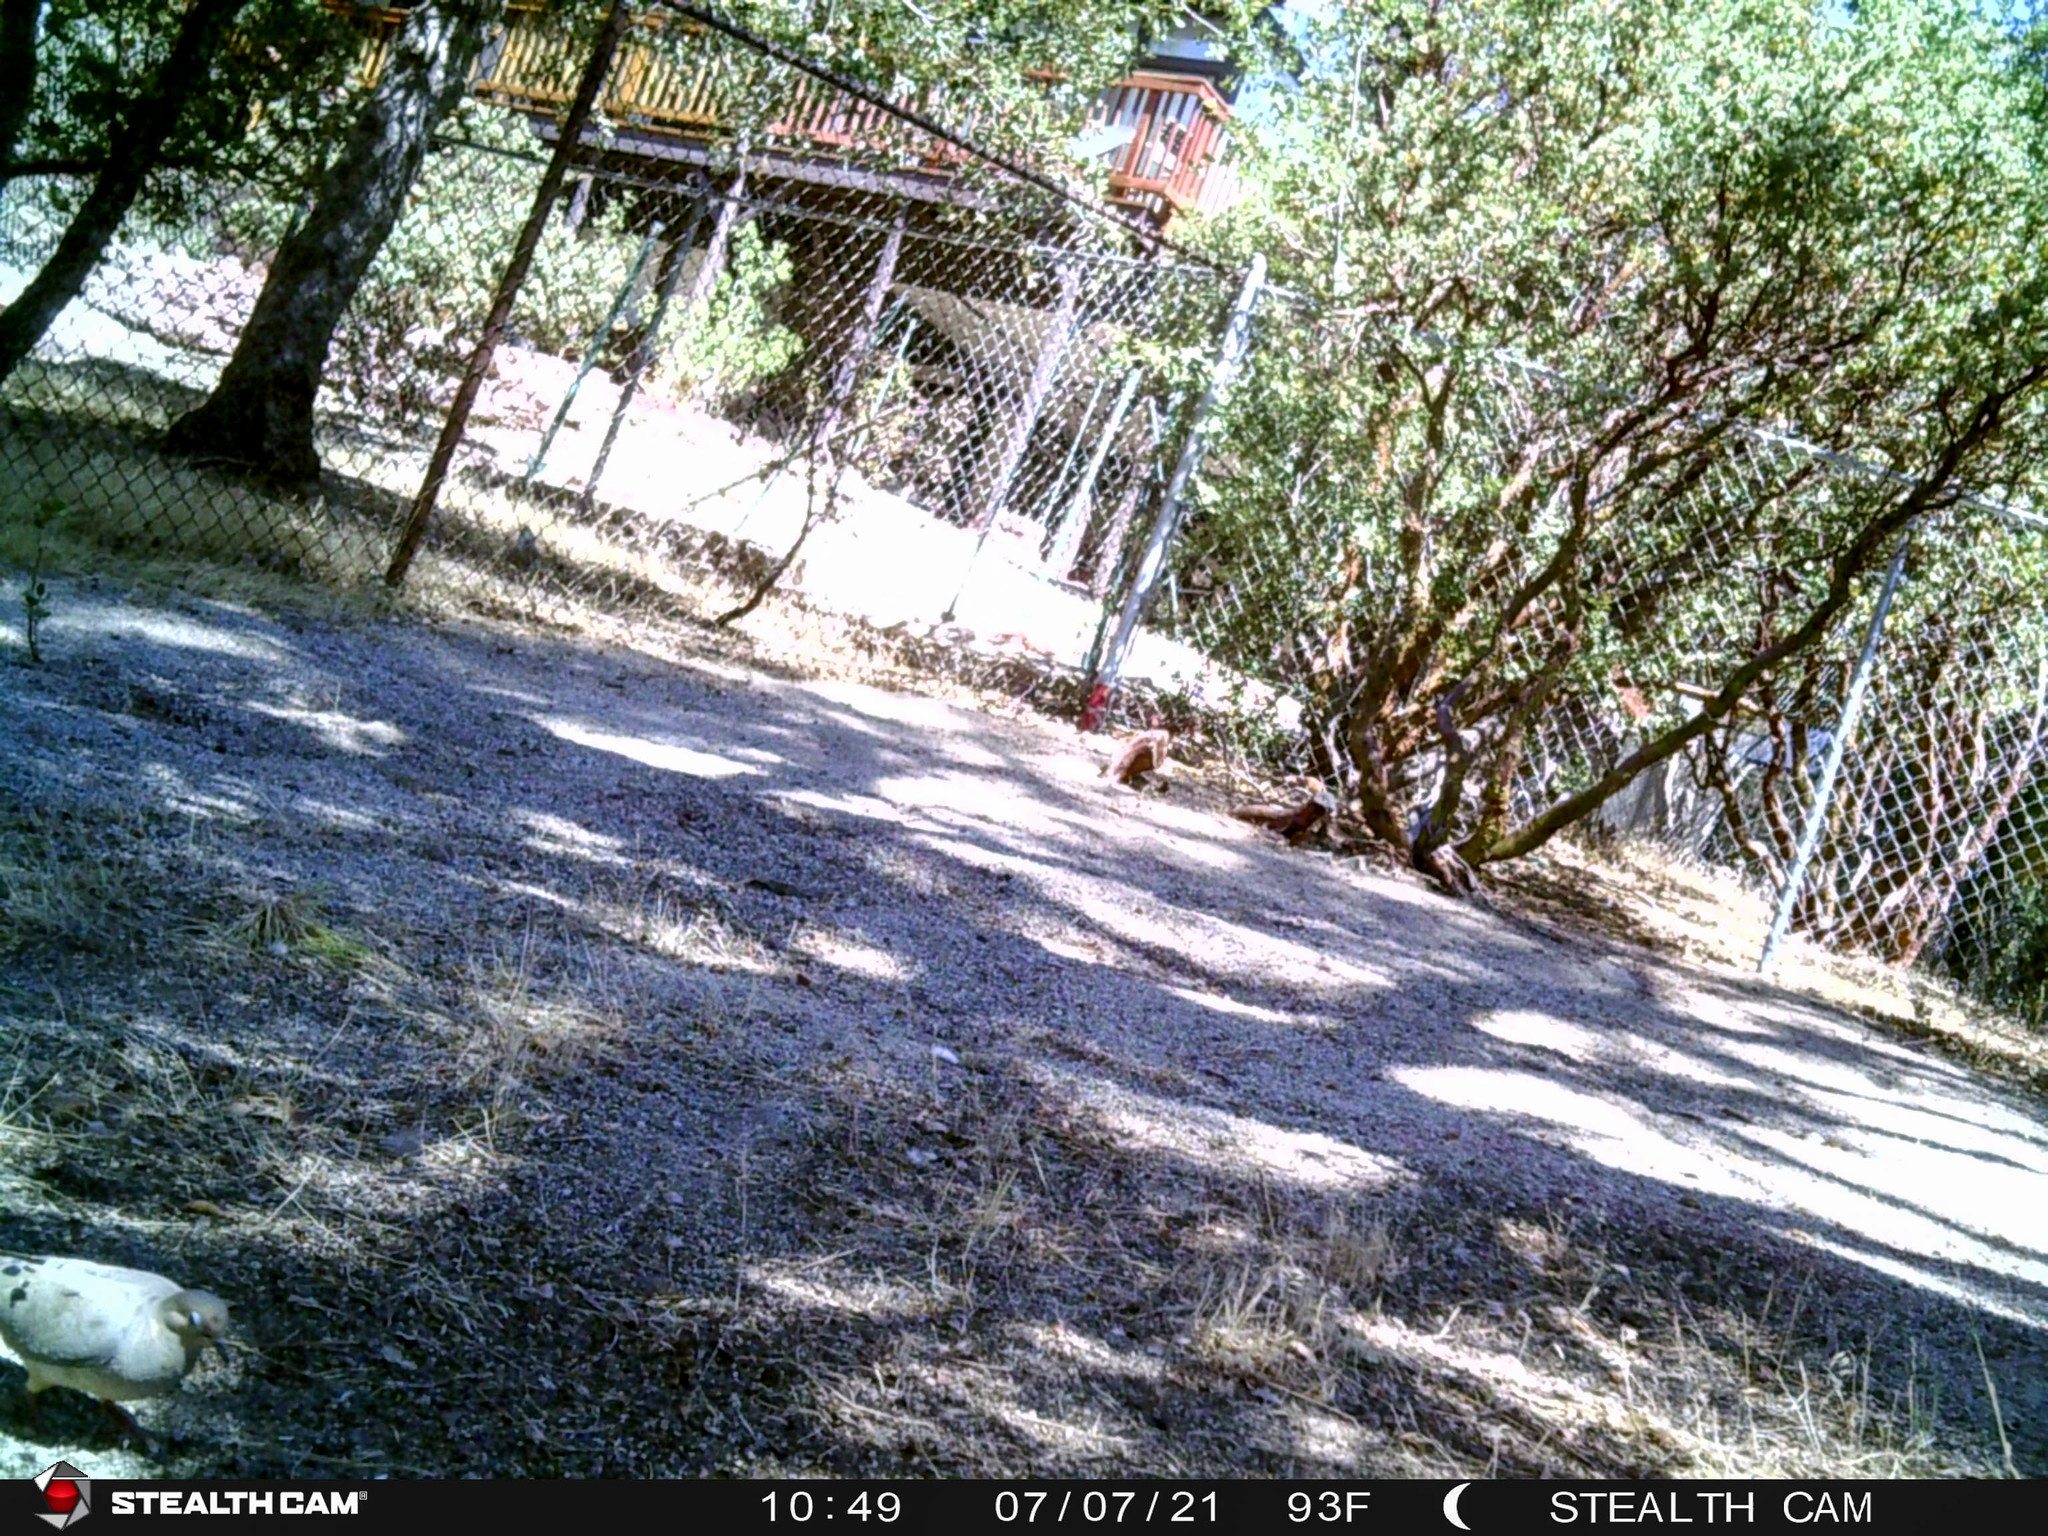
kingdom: Animalia
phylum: Chordata
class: Aves
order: Columbiformes
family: Columbidae
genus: Zenaida
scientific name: Zenaida macroura
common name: Mourning dove
